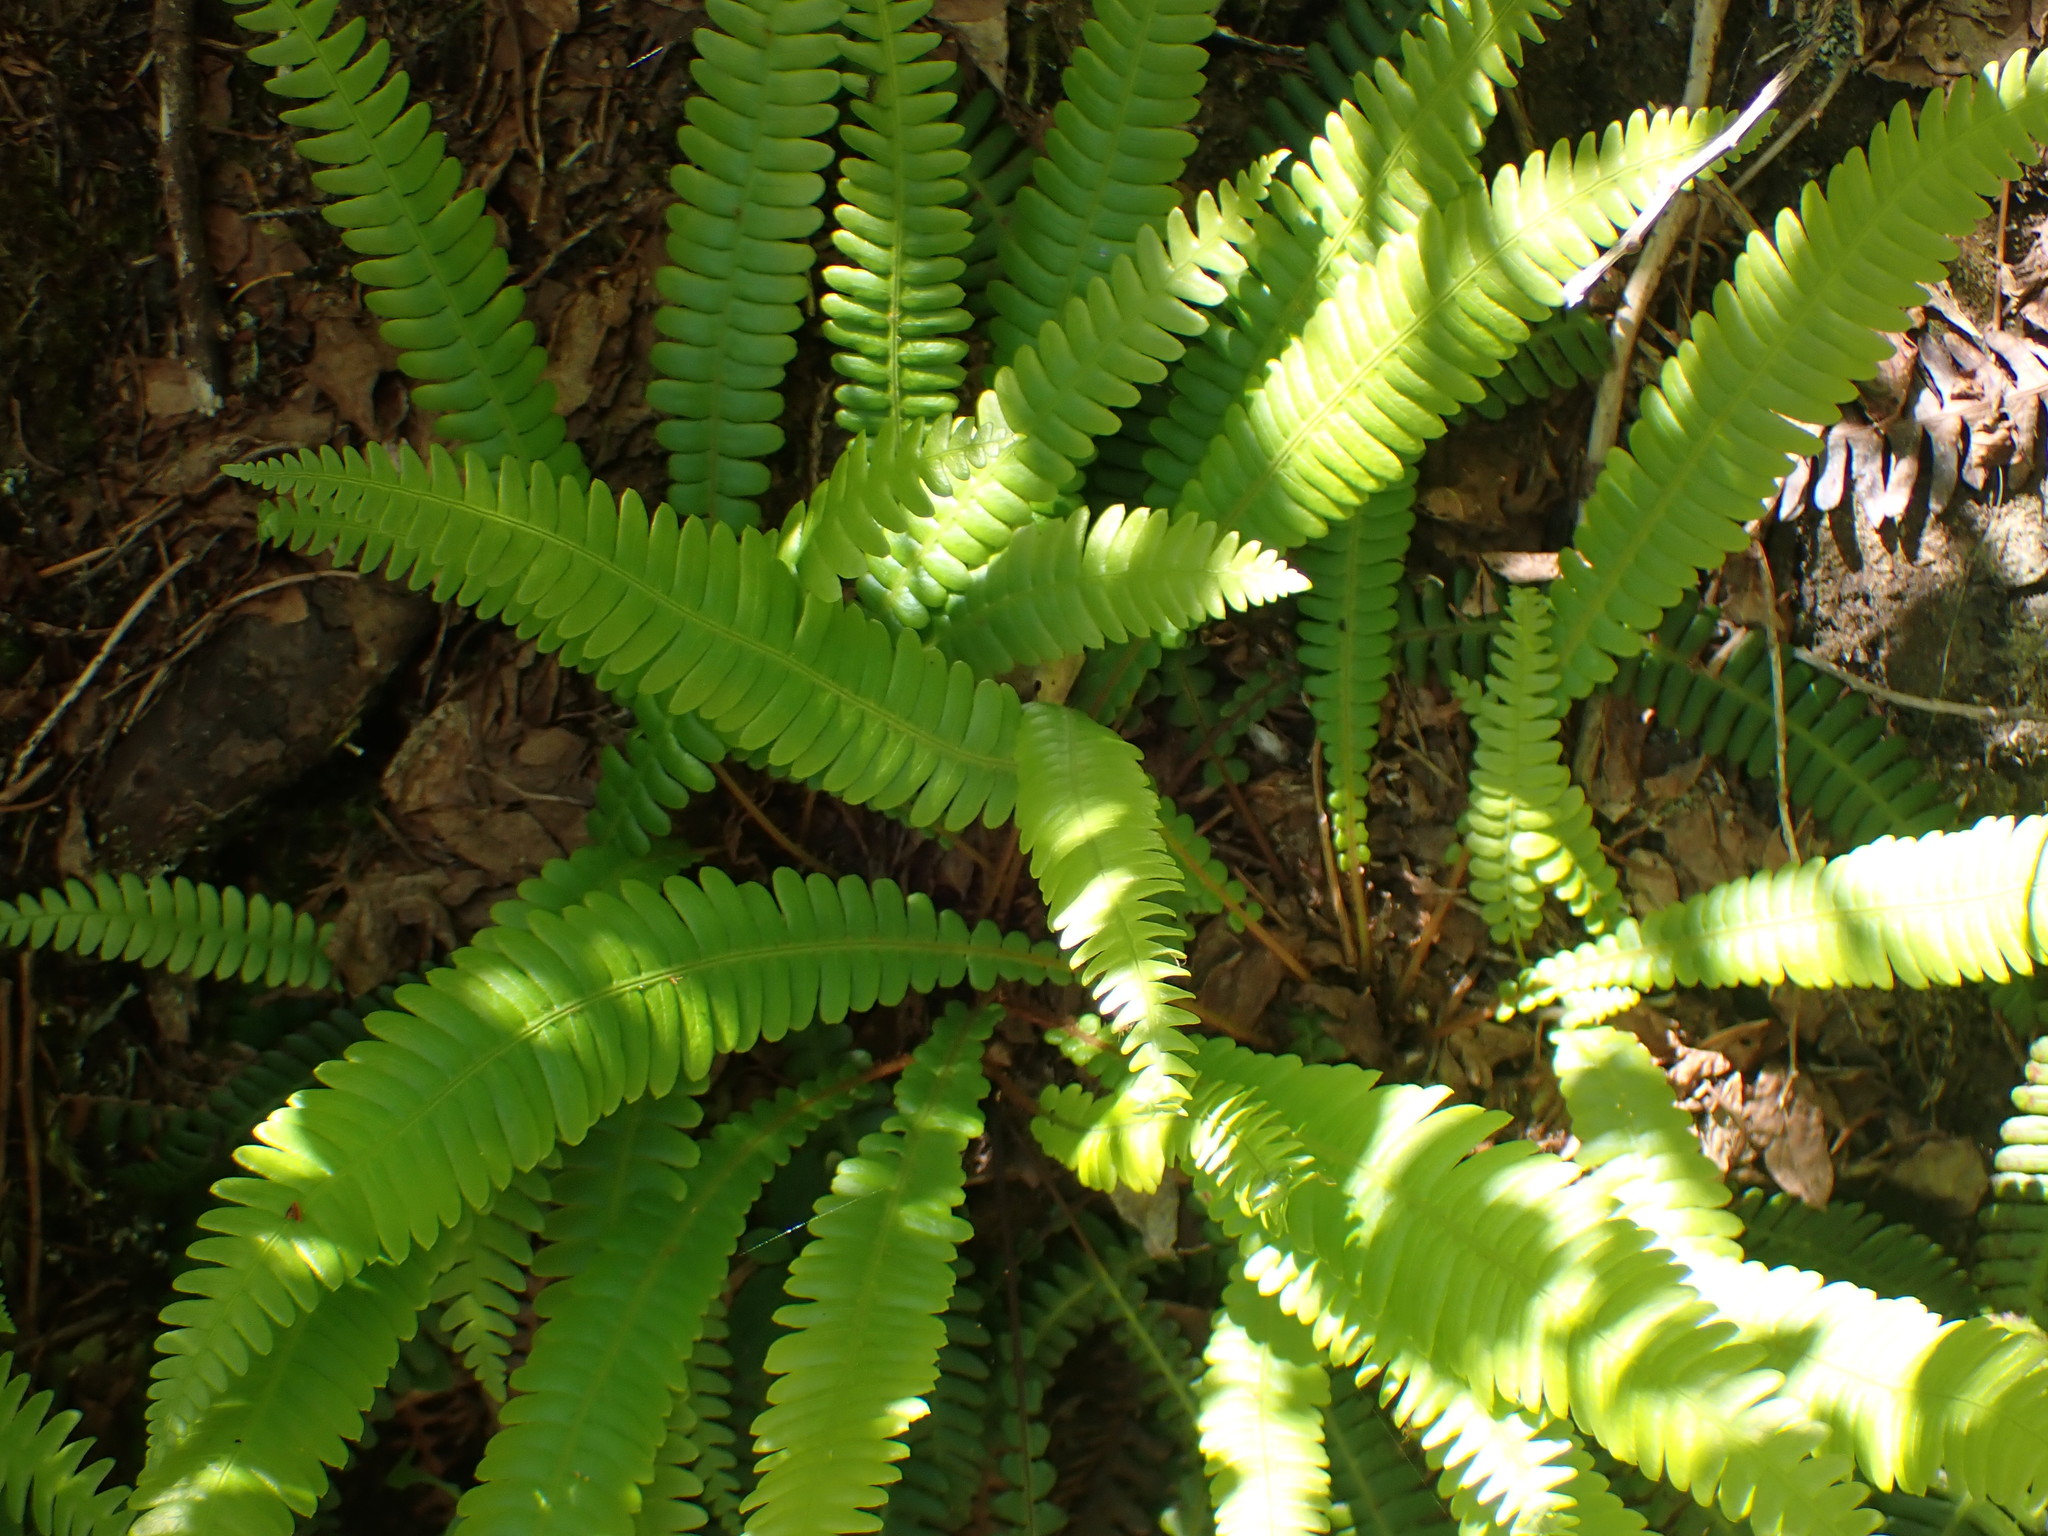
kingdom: Plantae
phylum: Tracheophyta
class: Polypodiopsida
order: Polypodiales
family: Blechnaceae
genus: Struthiopteris
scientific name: Struthiopteris spicant
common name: Deer fern
